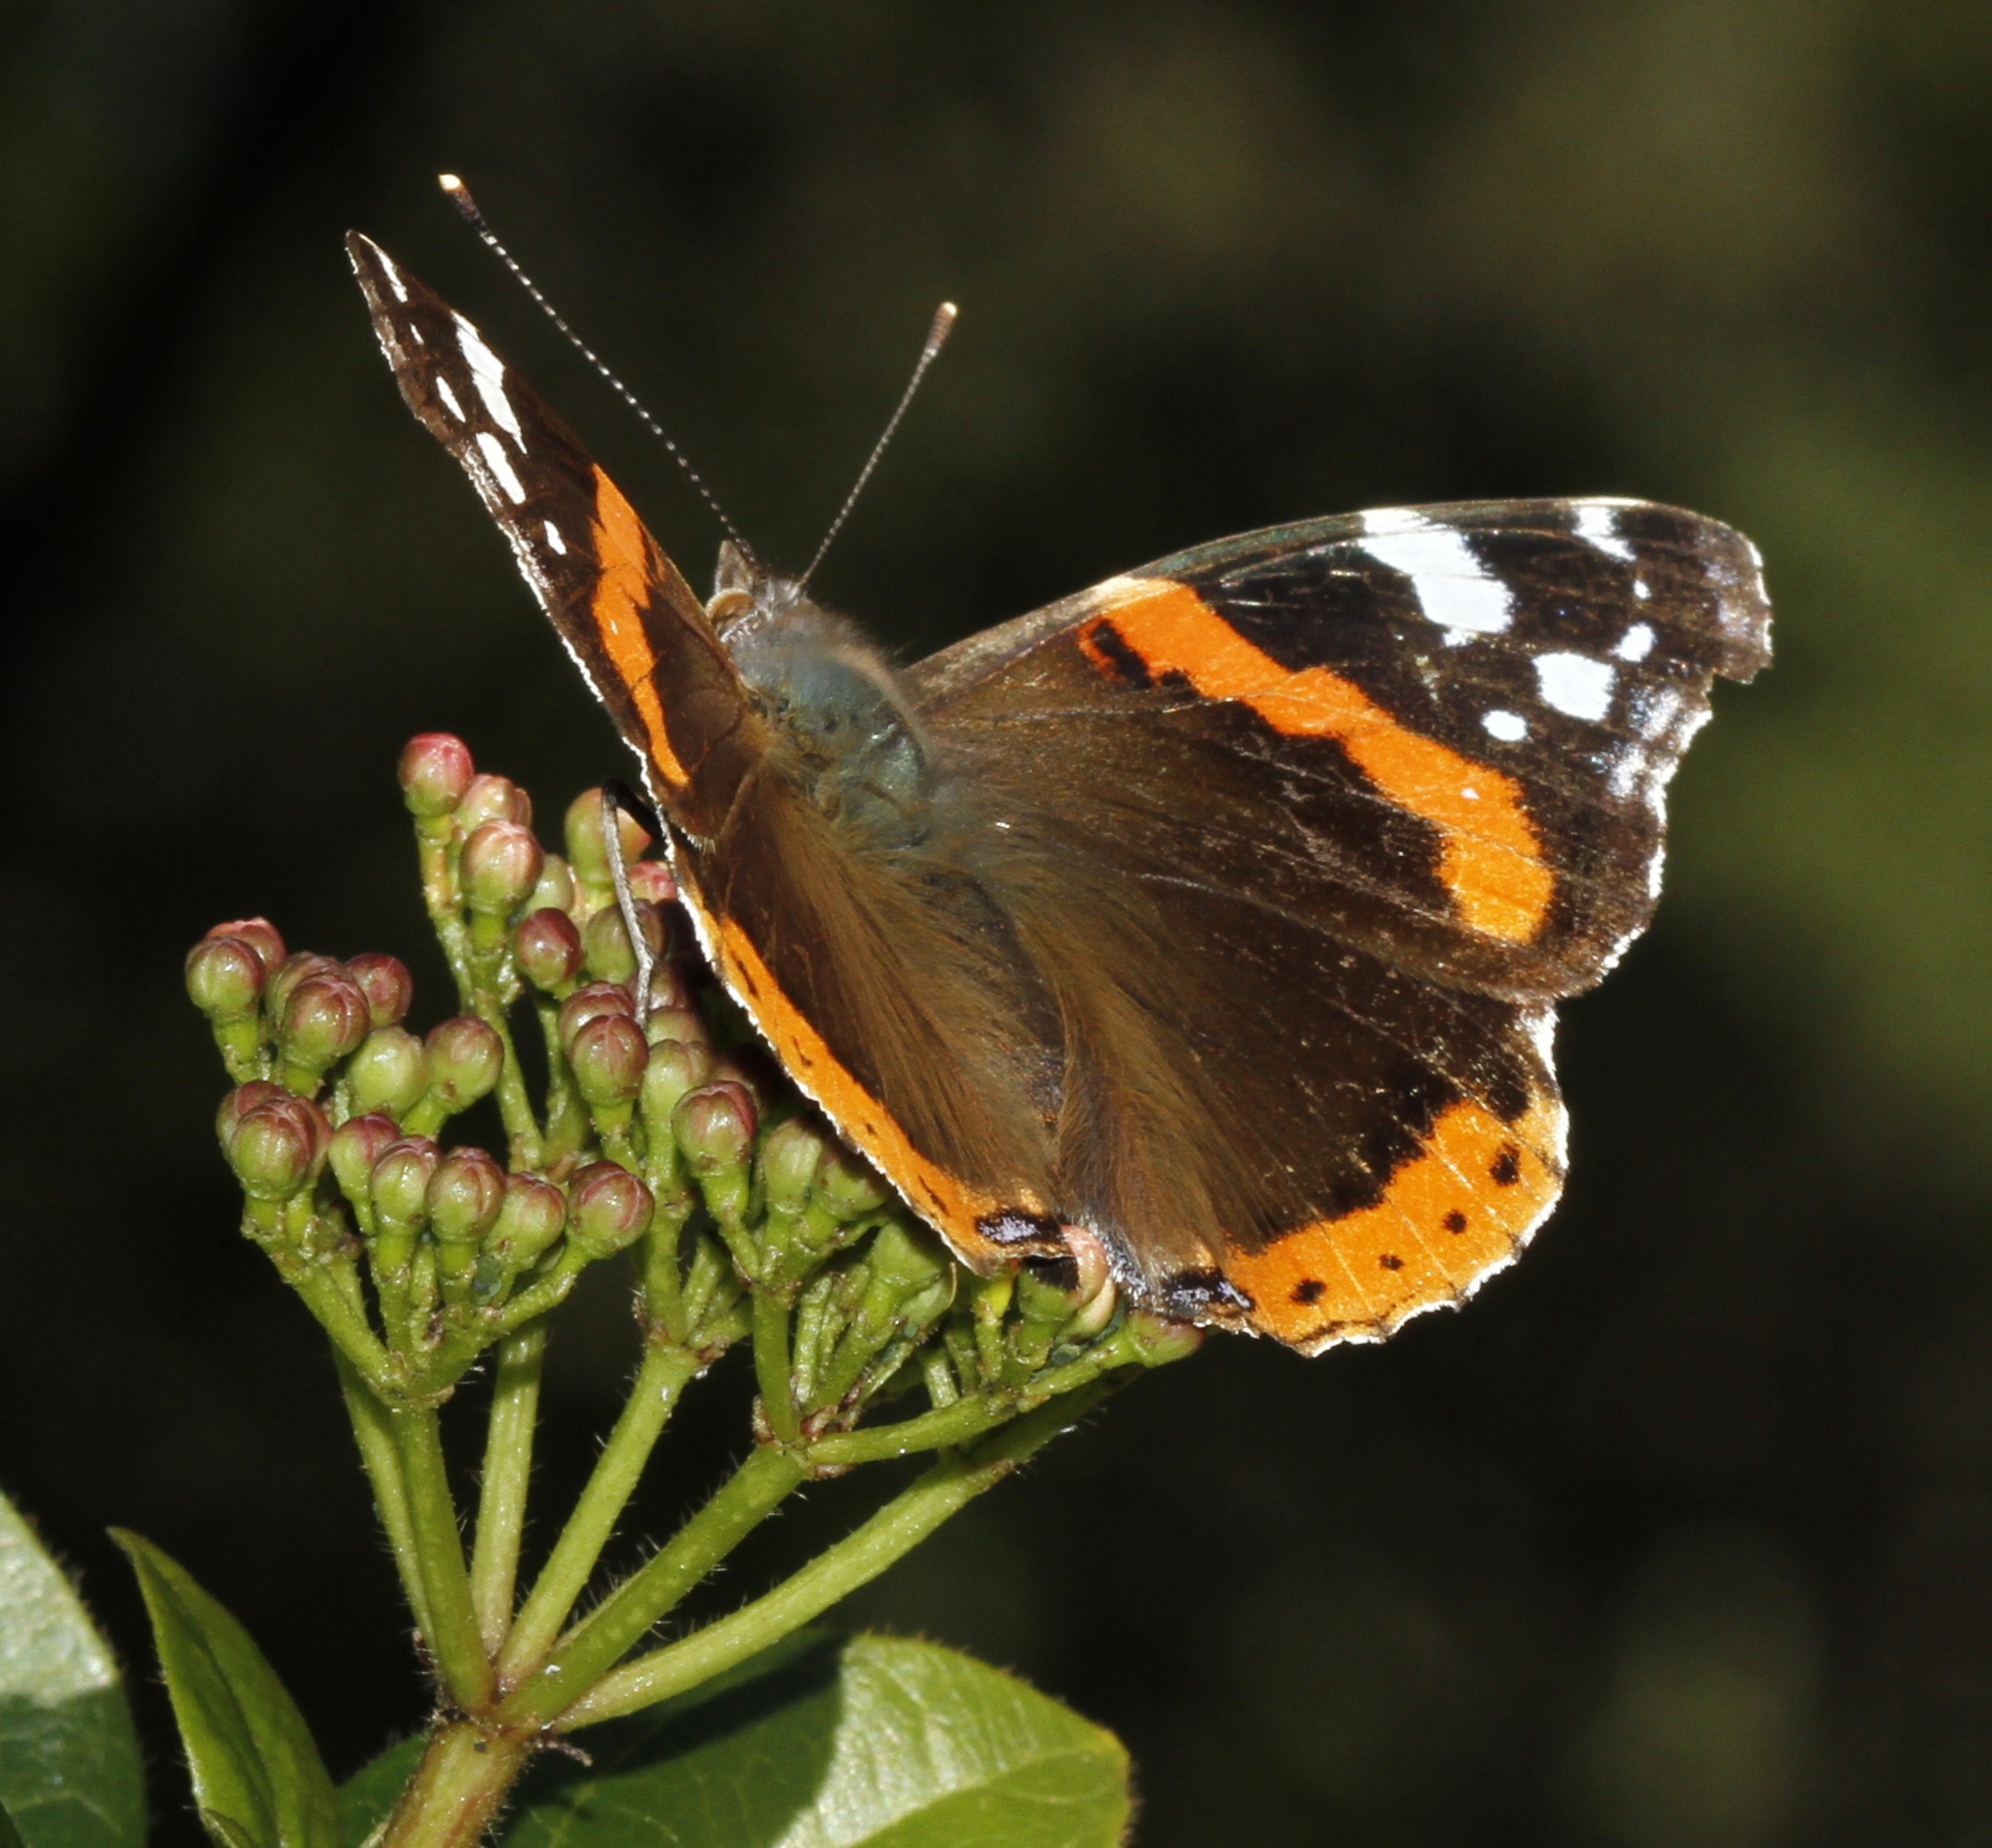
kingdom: Animalia
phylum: Arthropoda
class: Insecta
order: Lepidoptera
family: Nymphalidae
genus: Vanessa
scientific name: Vanessa atalanta
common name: Red admiral
